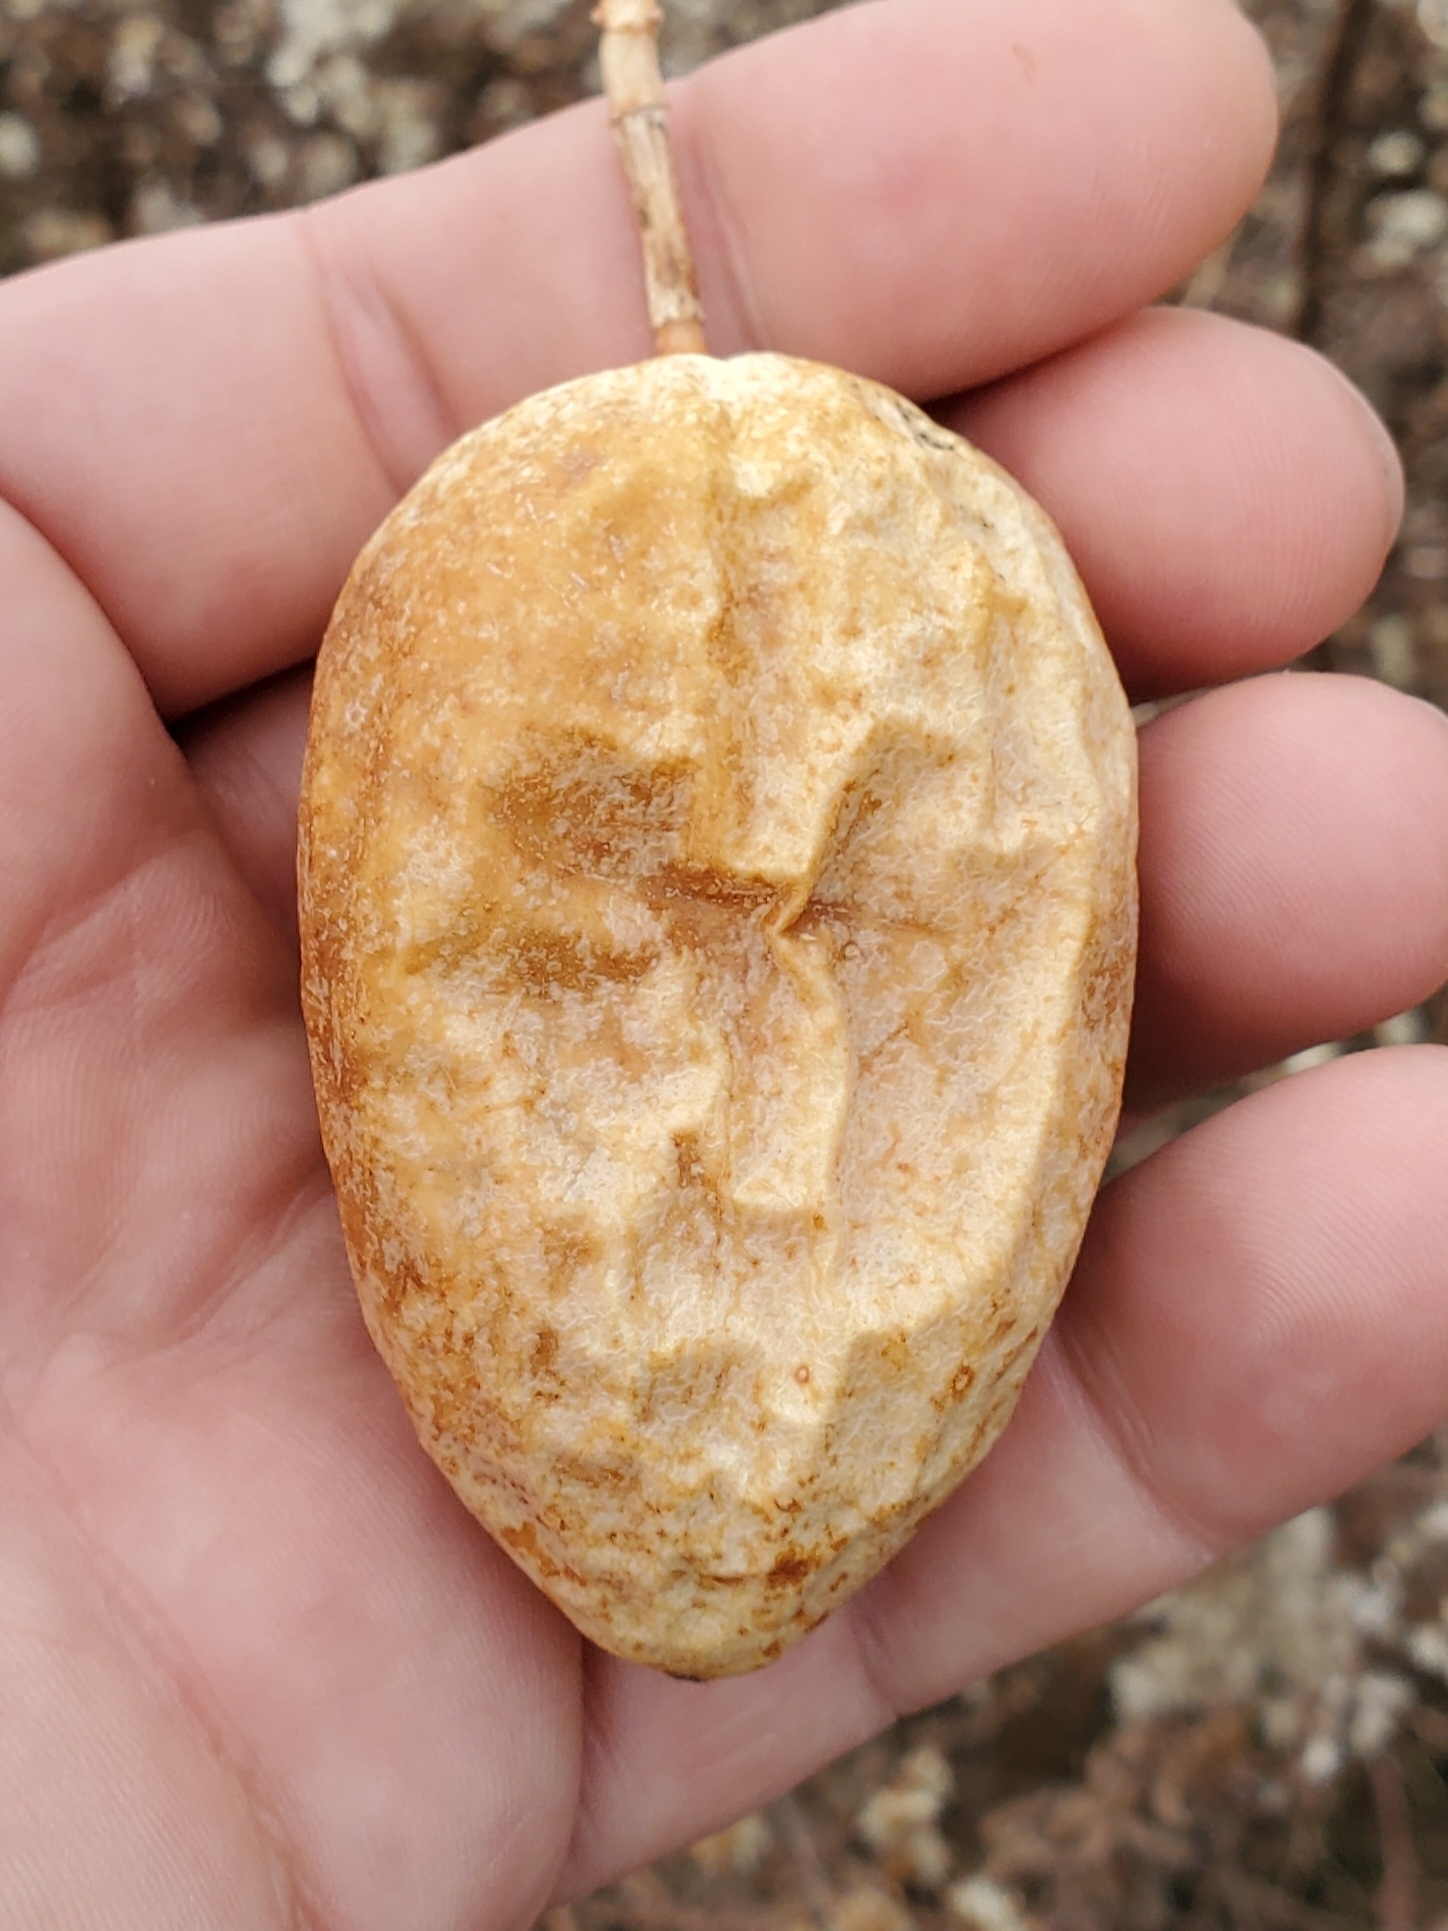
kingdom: Plantae
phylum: Tracheophyta
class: Magnoliopsida
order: Malpighiales
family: Passifloraceae
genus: Passiflora
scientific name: Passiflora incarnata
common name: Apricot-vine
